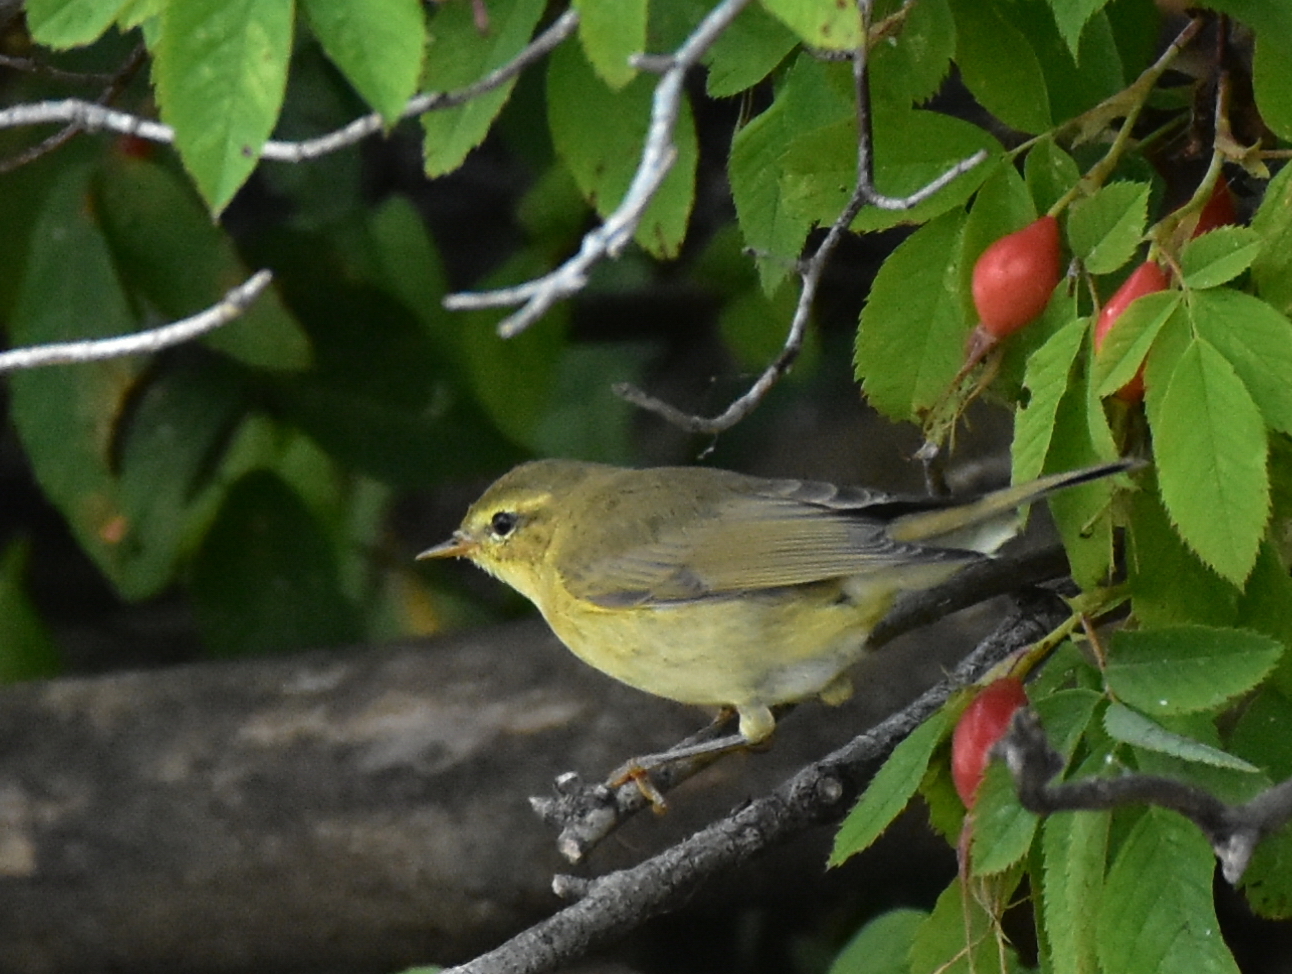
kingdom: Animalia
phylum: Chordata
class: Aves
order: Passeriformes
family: Phylloscopidae
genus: Phylloscopus
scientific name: Phylloscopus trochiloides
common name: Greenish warbler
